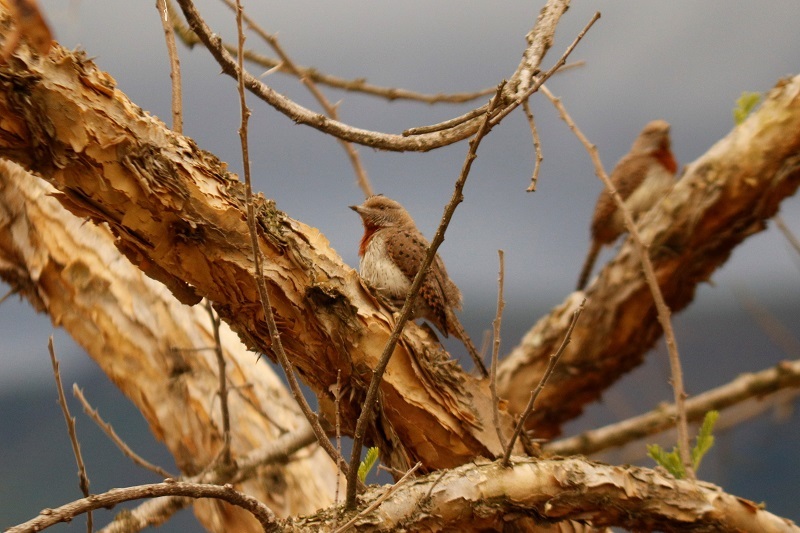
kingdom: Animalia
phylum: Chordata
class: Aves
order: Piciformes
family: Picidae
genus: Jynx
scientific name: Jynx ruficollis
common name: Red-throated wryneck
